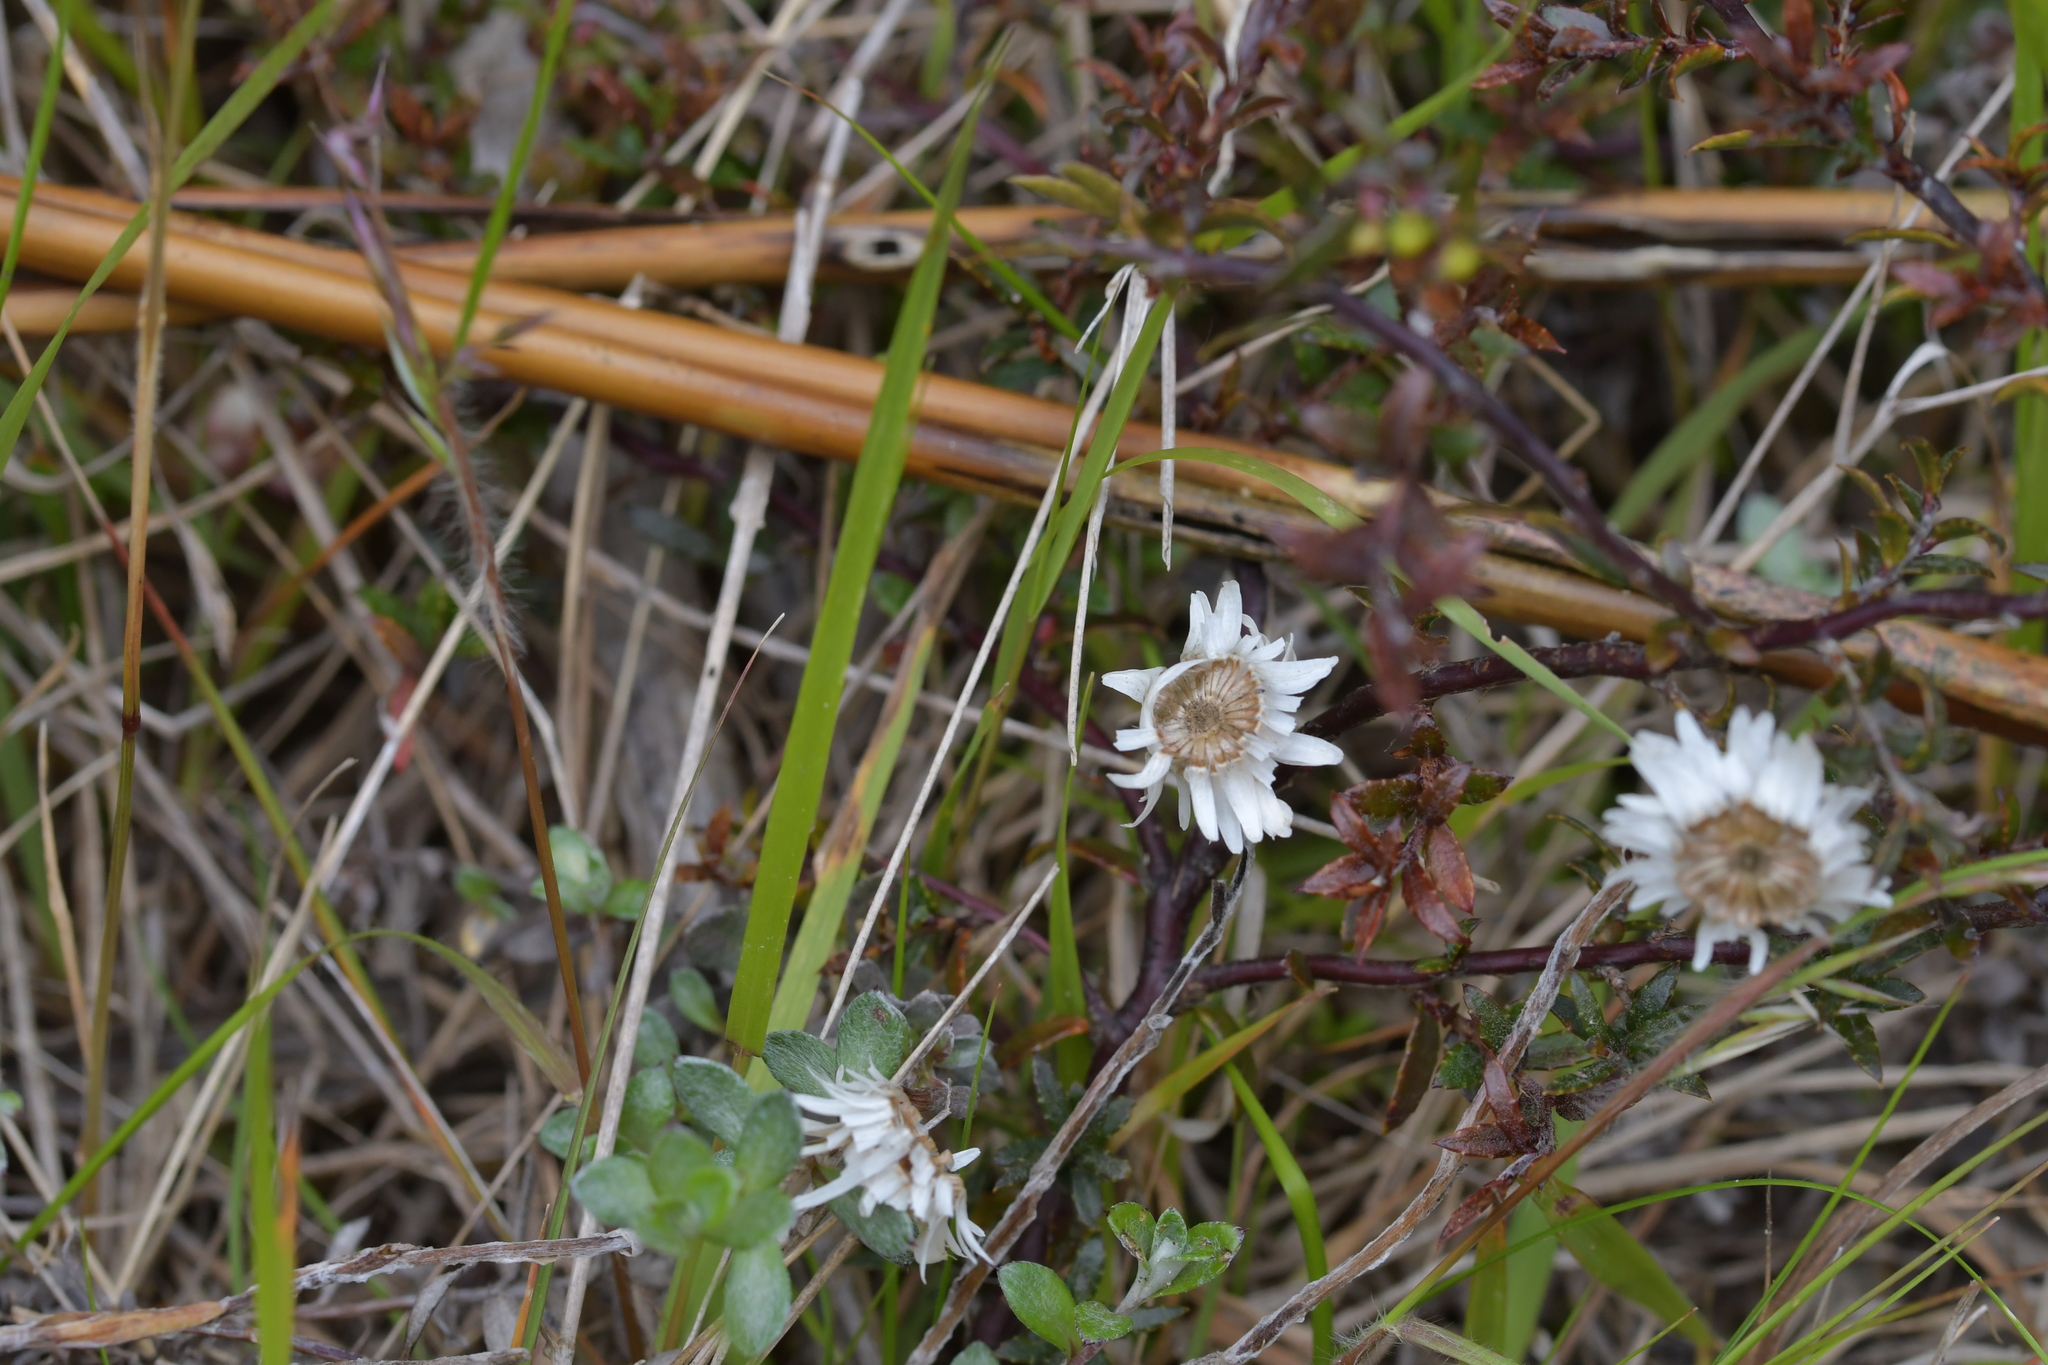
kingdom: Plantae
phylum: Tracheophyta
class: Magnoliopsida
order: Asterales
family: Asteraceae
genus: Anaphalioides
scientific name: Anaphalioides bellidioides
